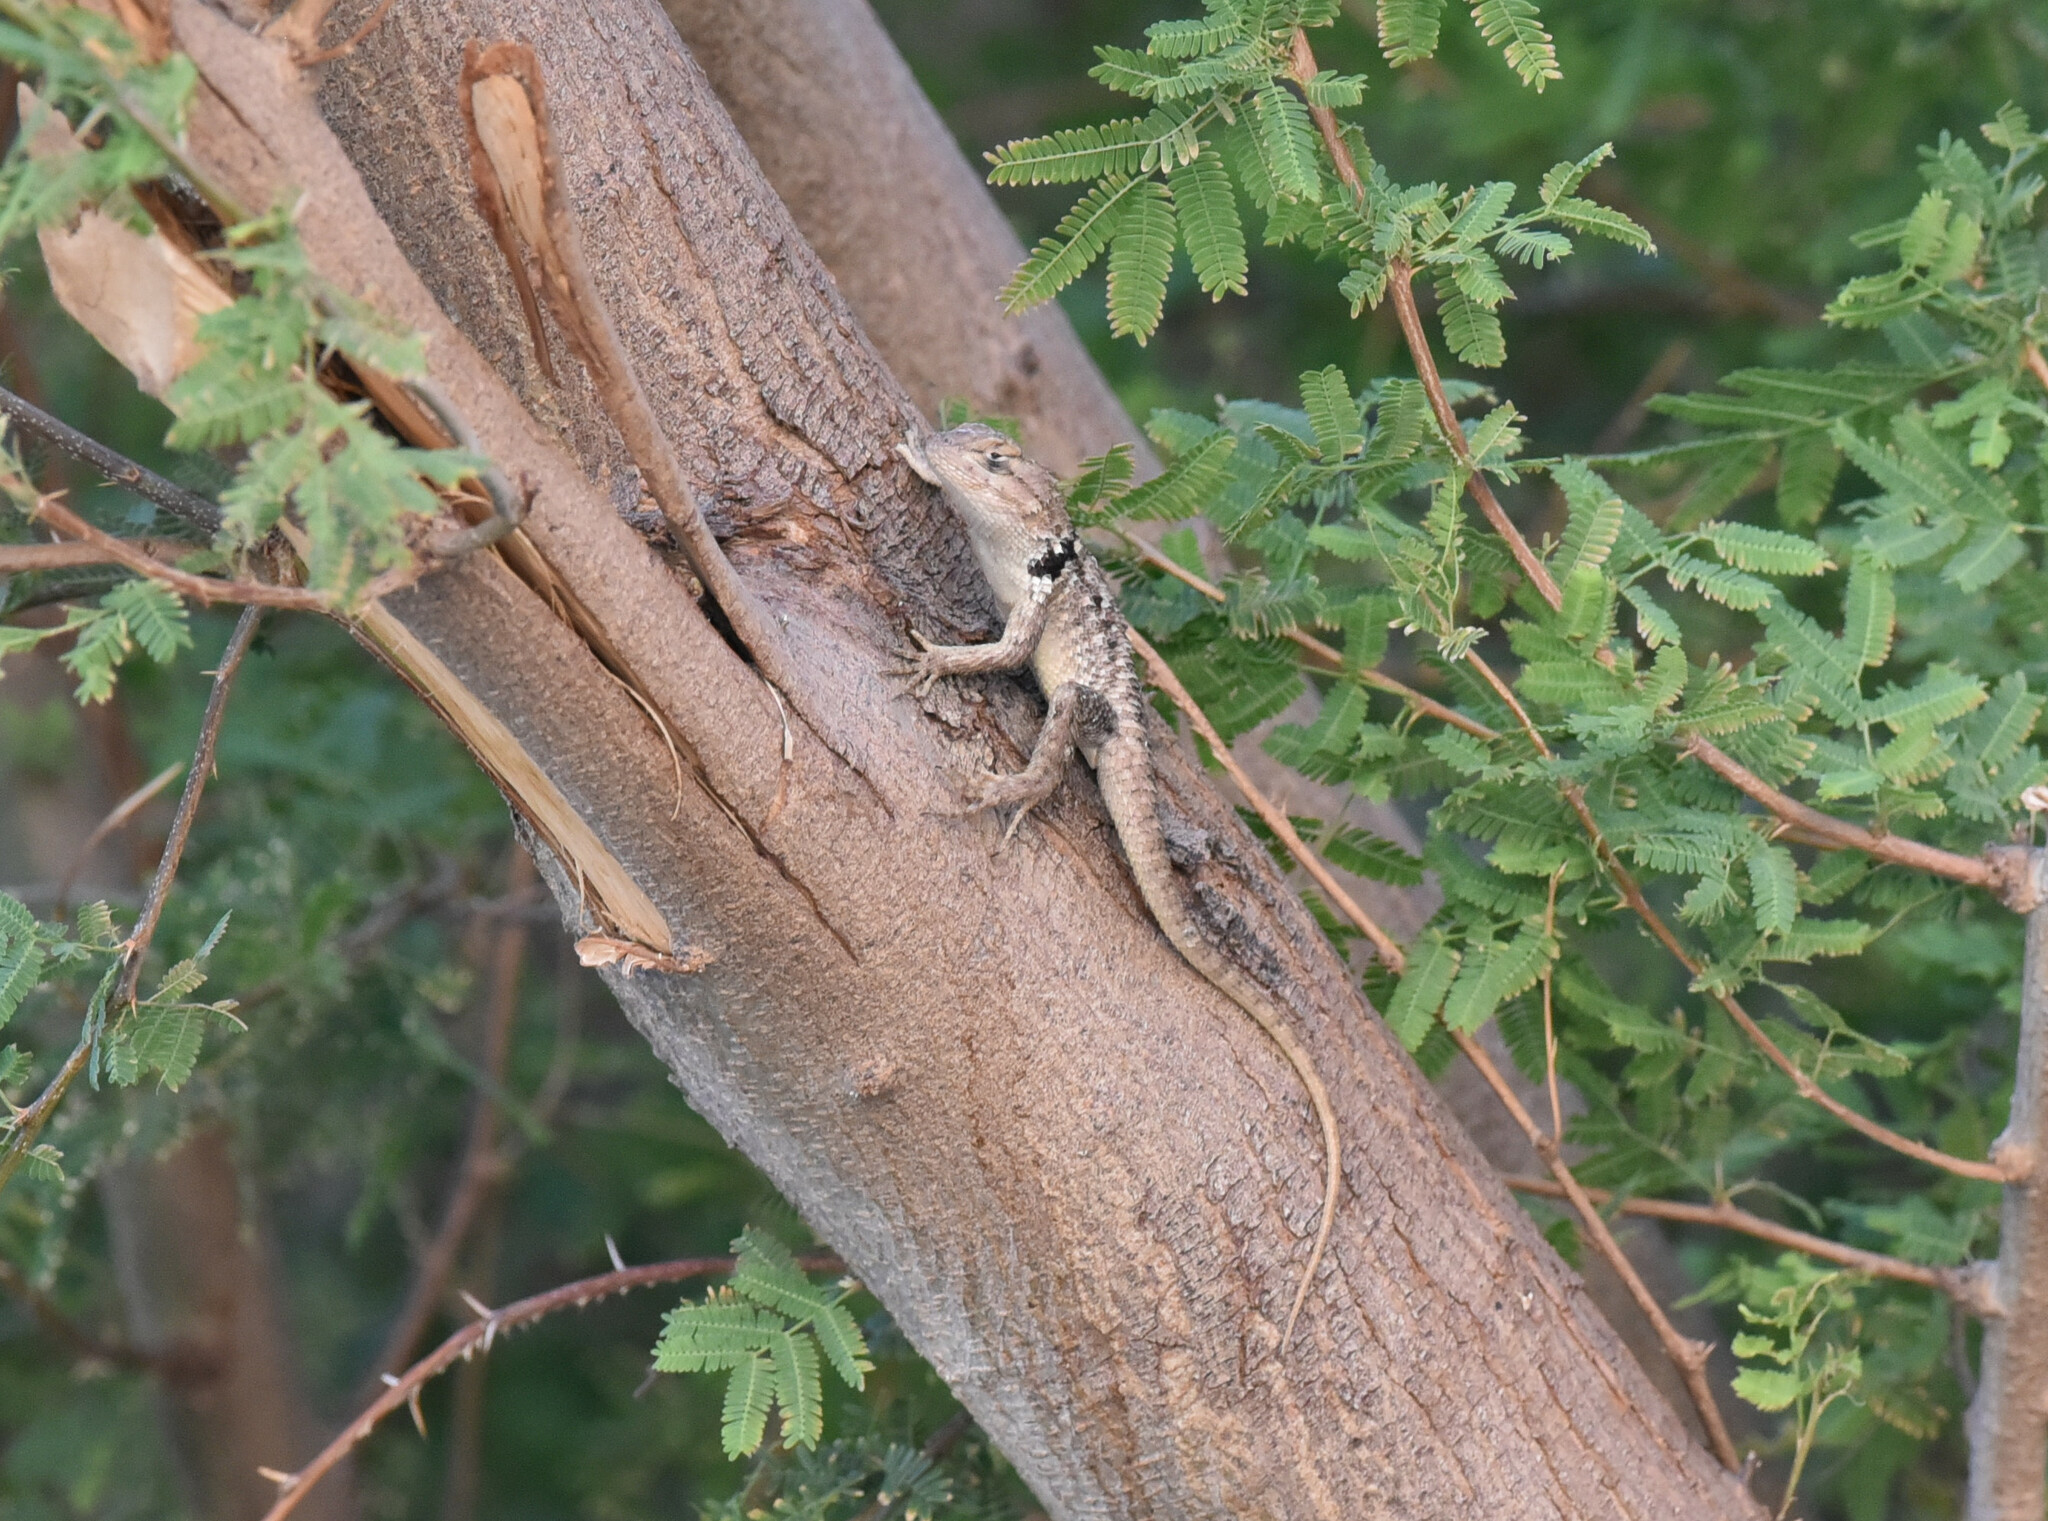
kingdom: Animalia
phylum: Chordata
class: Squamata
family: Phrynosomatidae
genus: Sceloporus
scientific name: Sceloporus bimaculosus
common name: Twin-spotted spiny lizard
